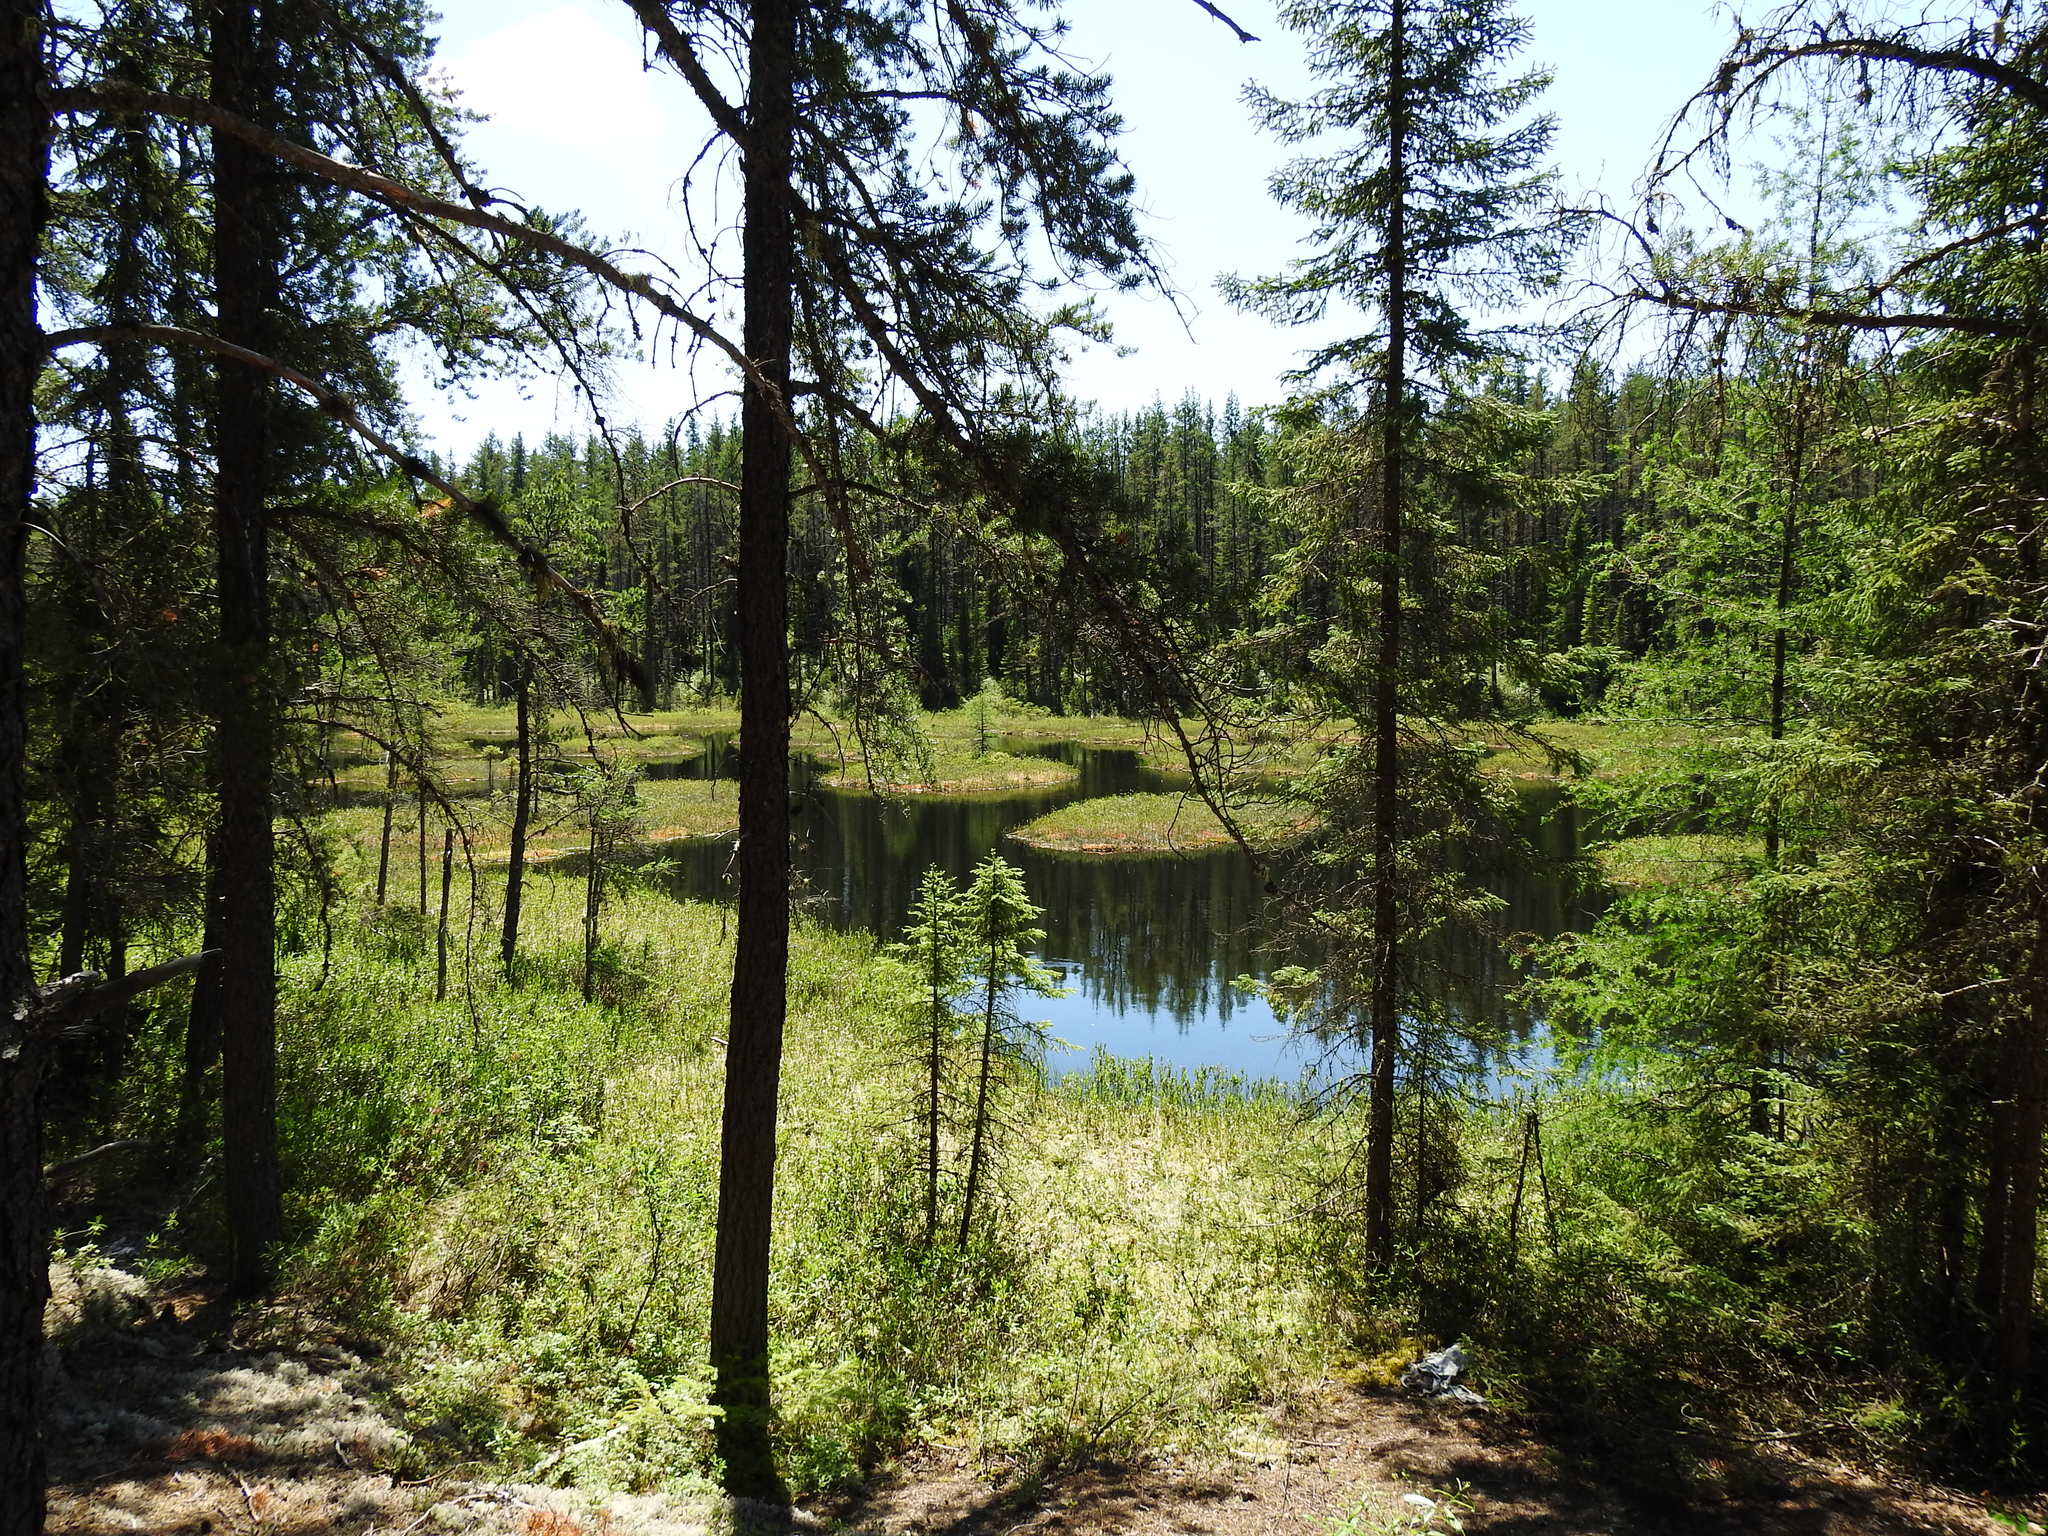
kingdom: Plantae
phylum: Tracheophyta
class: Pinopsida
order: Pinales
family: Pinaceae
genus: Pinus
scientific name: Pinus banksiana
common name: Jack pine
